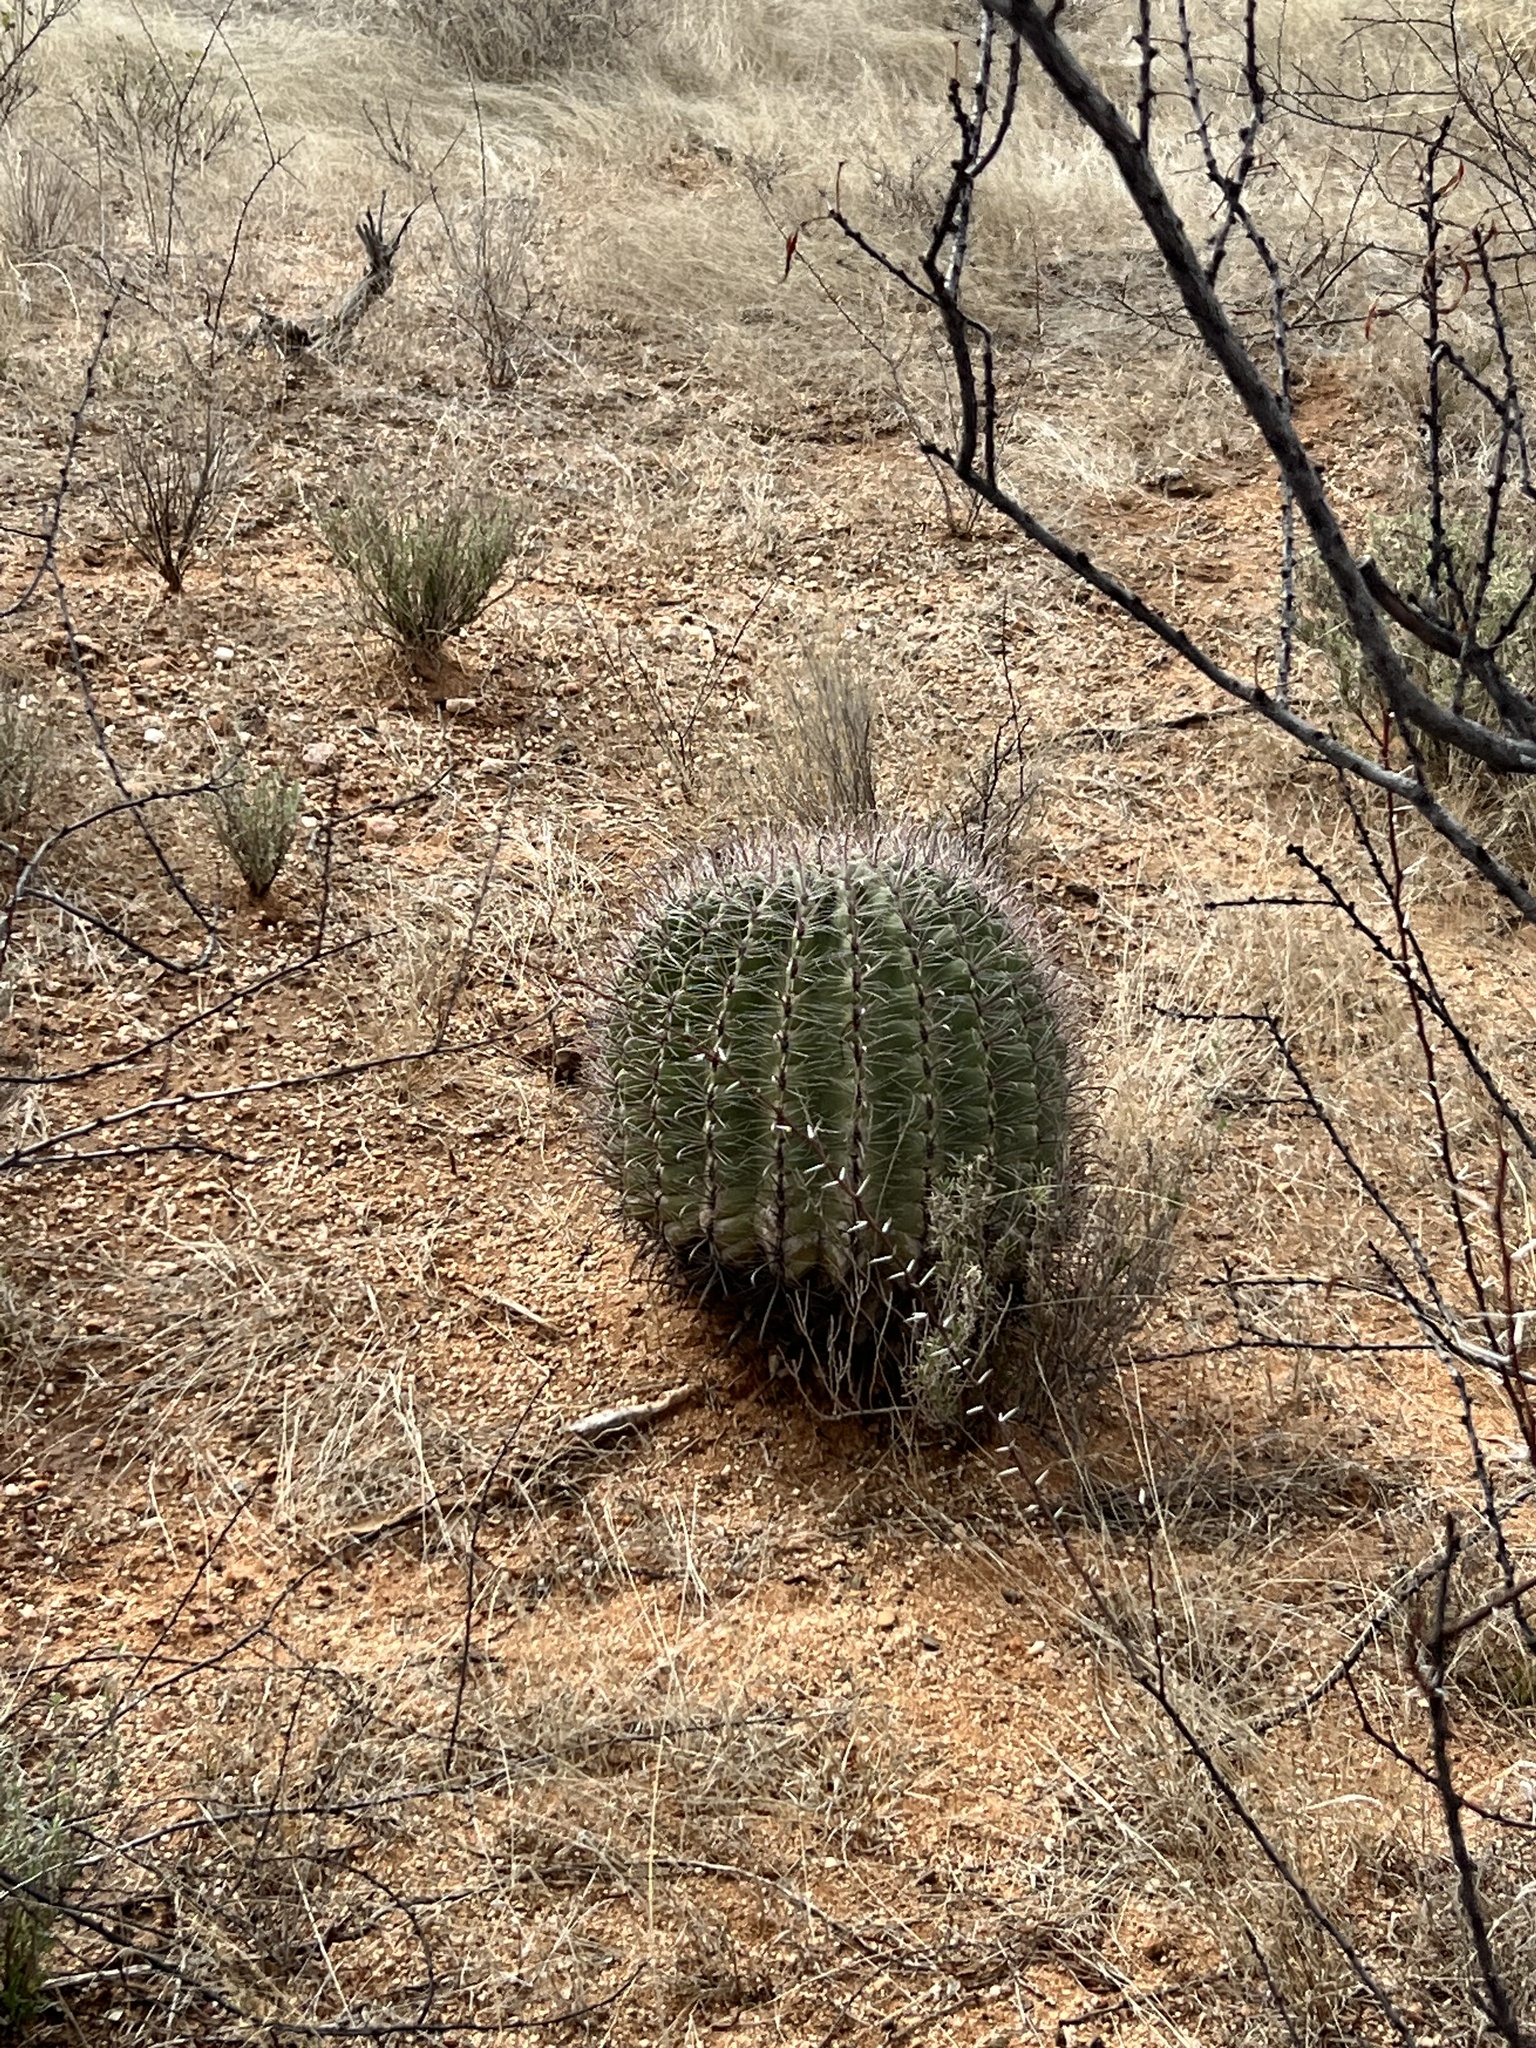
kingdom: Plantae
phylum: Tracheophyta
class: Magnoliopsida
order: Caryophyllales
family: Cactaceae
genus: Ferocactus
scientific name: Ferocactus wislizeni
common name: Candy barrel cactus
